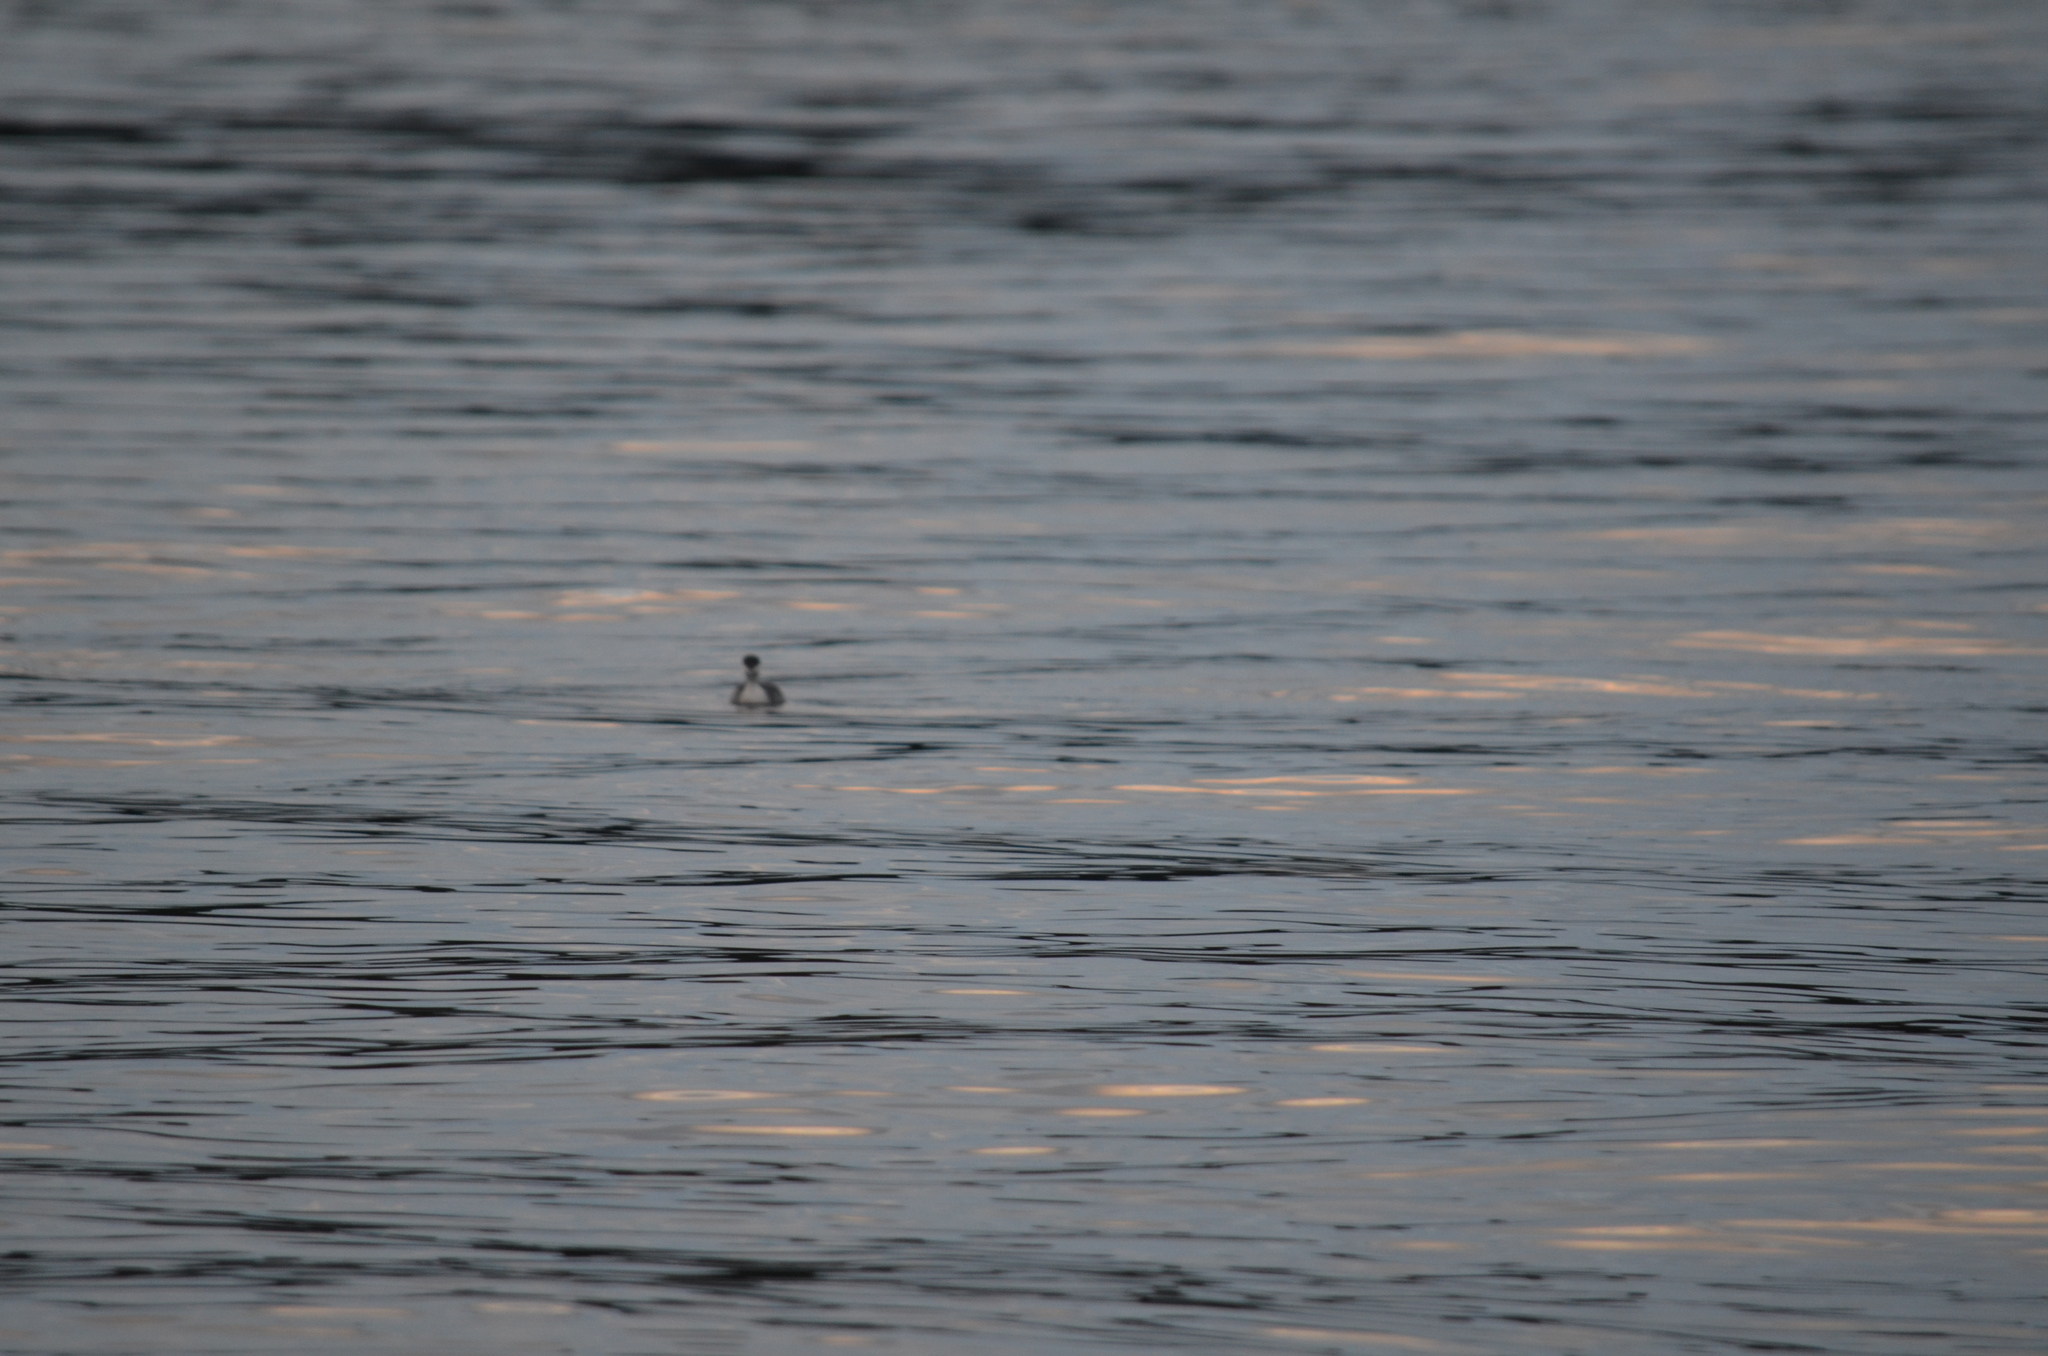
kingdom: Animalia
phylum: Chordata
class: Aves
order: Podicipediformes
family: Podicipedidae
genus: Podiceps
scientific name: Podiceps auritus
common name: Horned grebe
